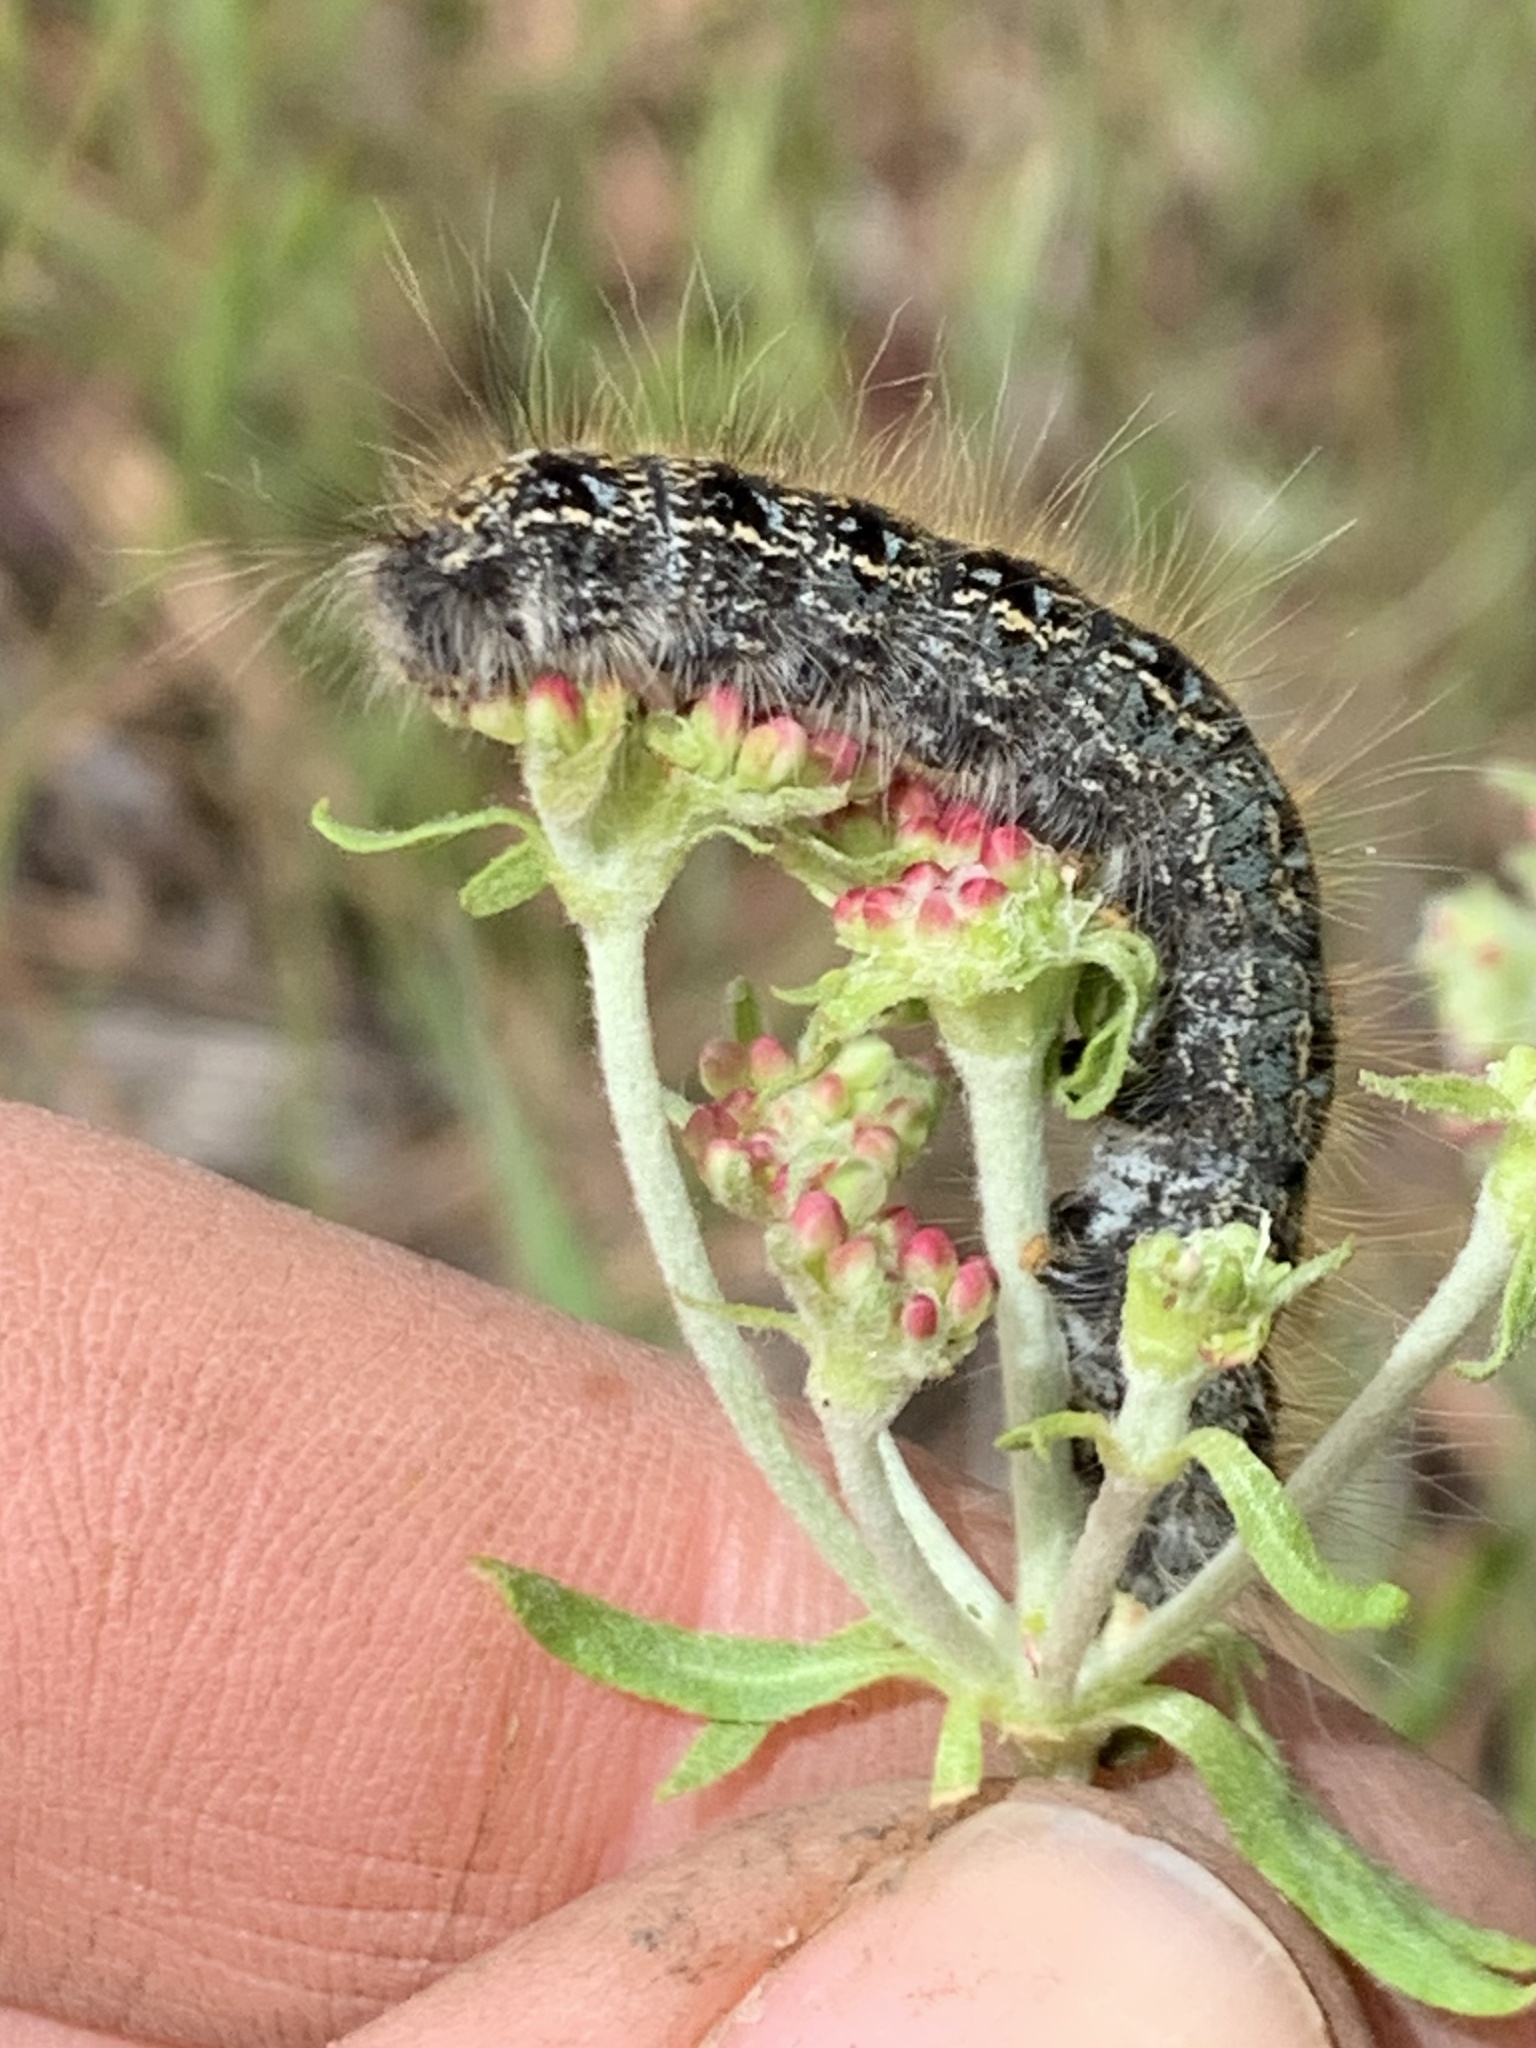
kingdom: Animalia
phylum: Arthropoda
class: Insecta
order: Lepidoptera
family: Lasiocampidae
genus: Malacosoma
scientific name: Malacosoma californica
